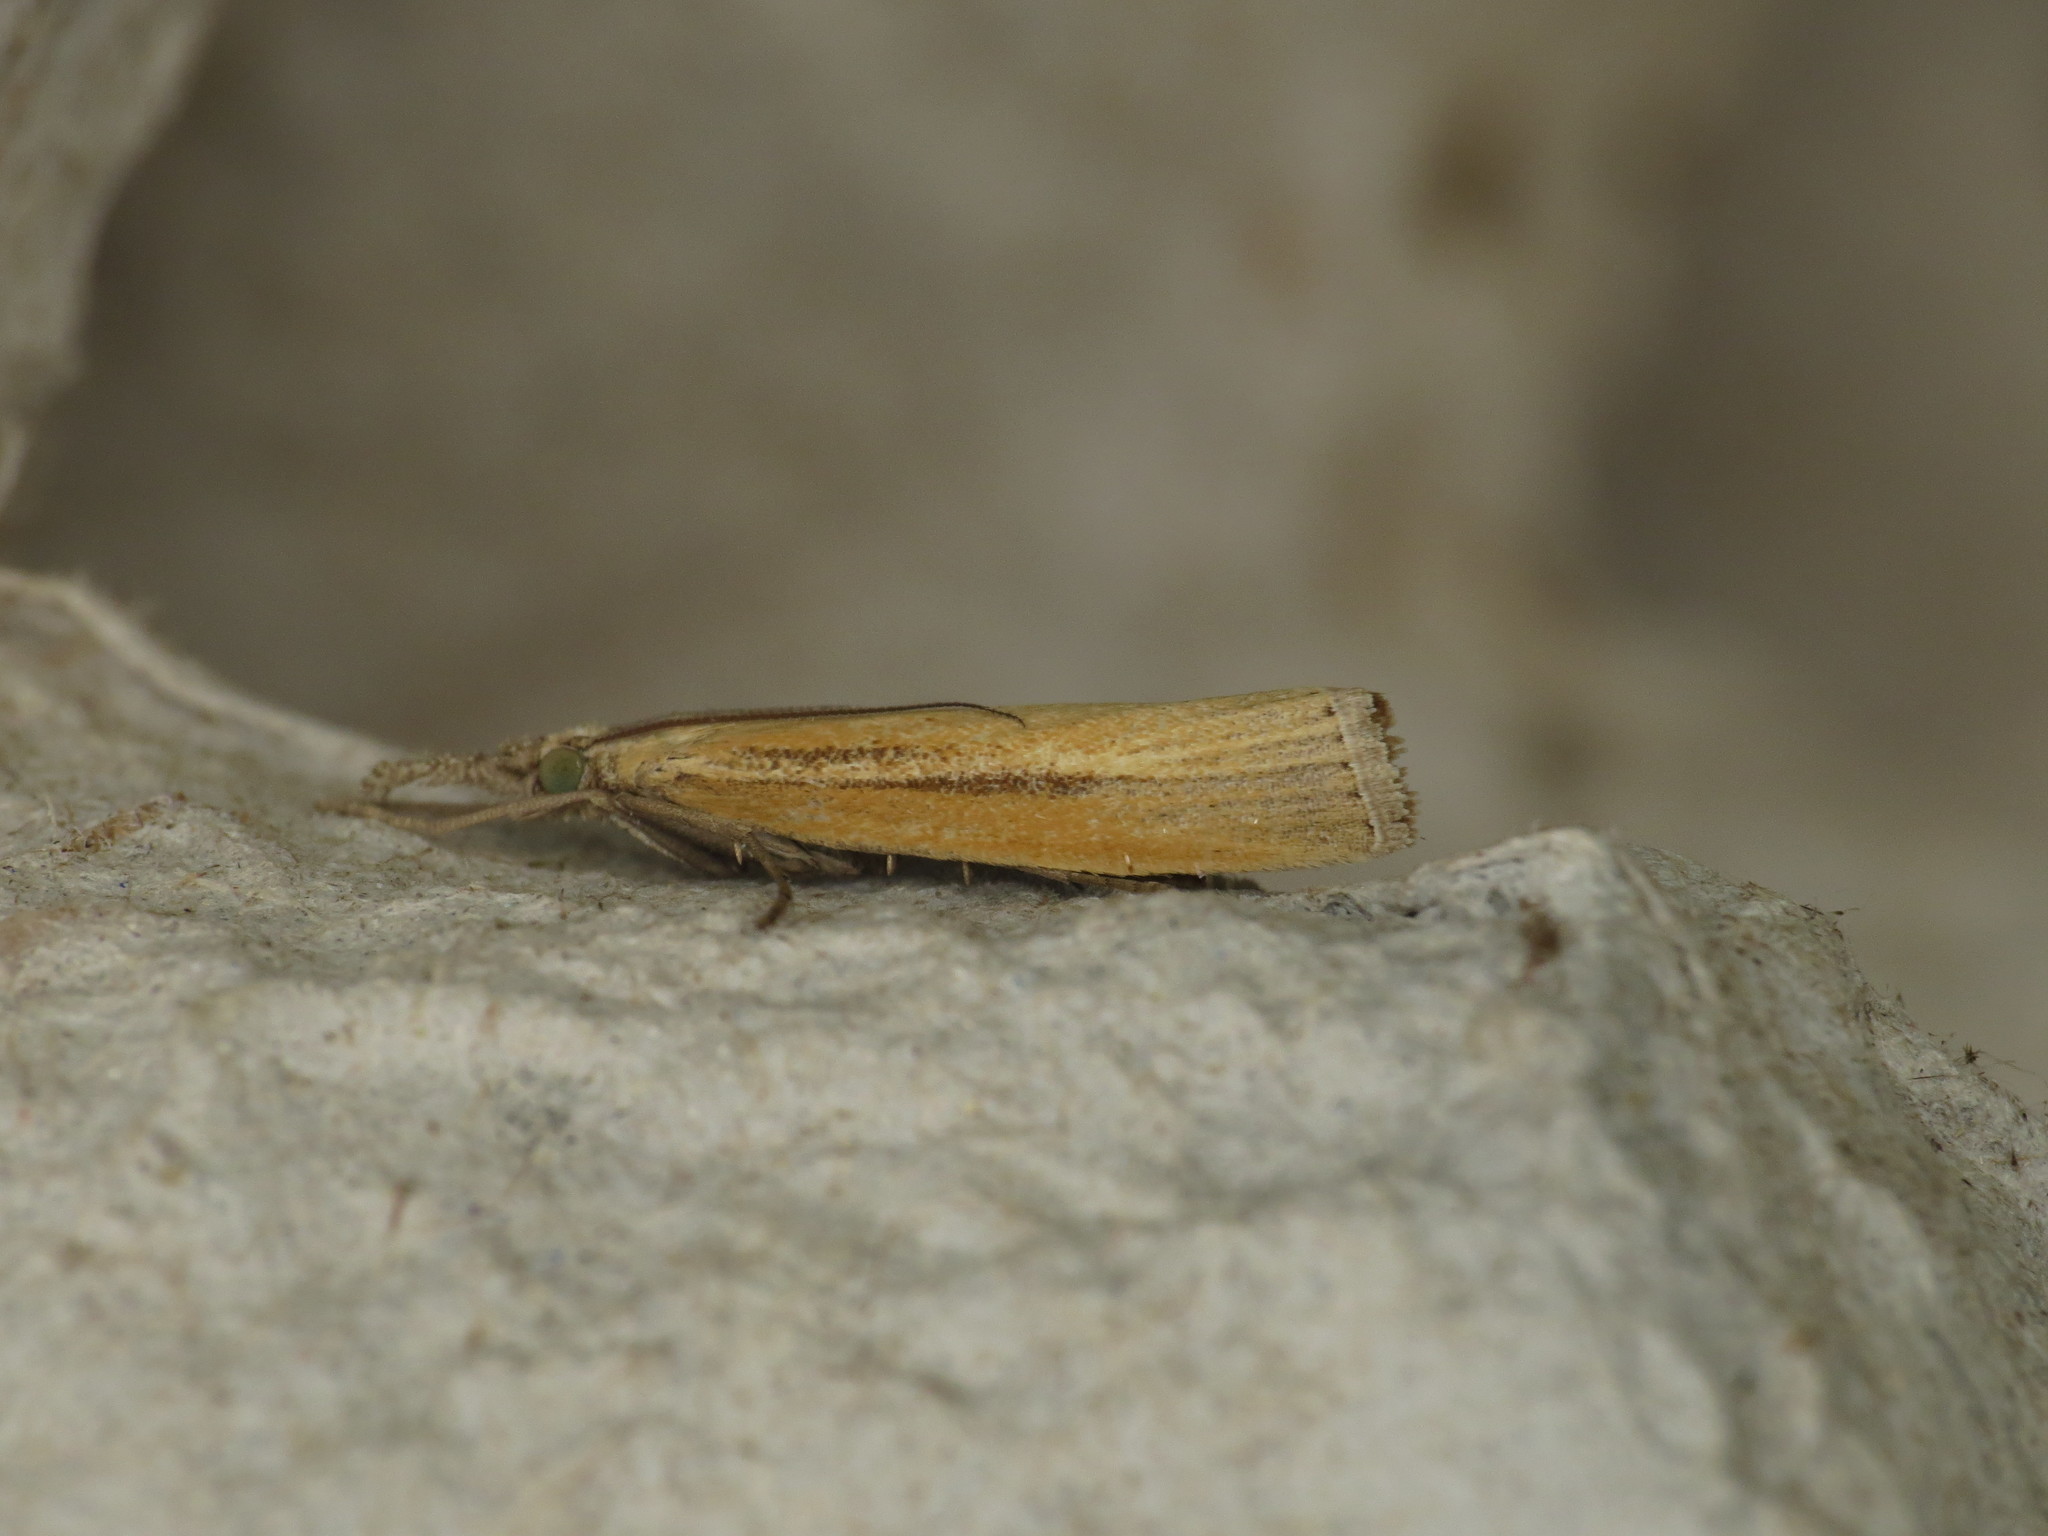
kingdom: Animalia
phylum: Arthropoda
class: Insecta
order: Lepidoptera
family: Crambidae
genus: Agriphila
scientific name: Agriphila tristellus
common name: Common grass-veneer
